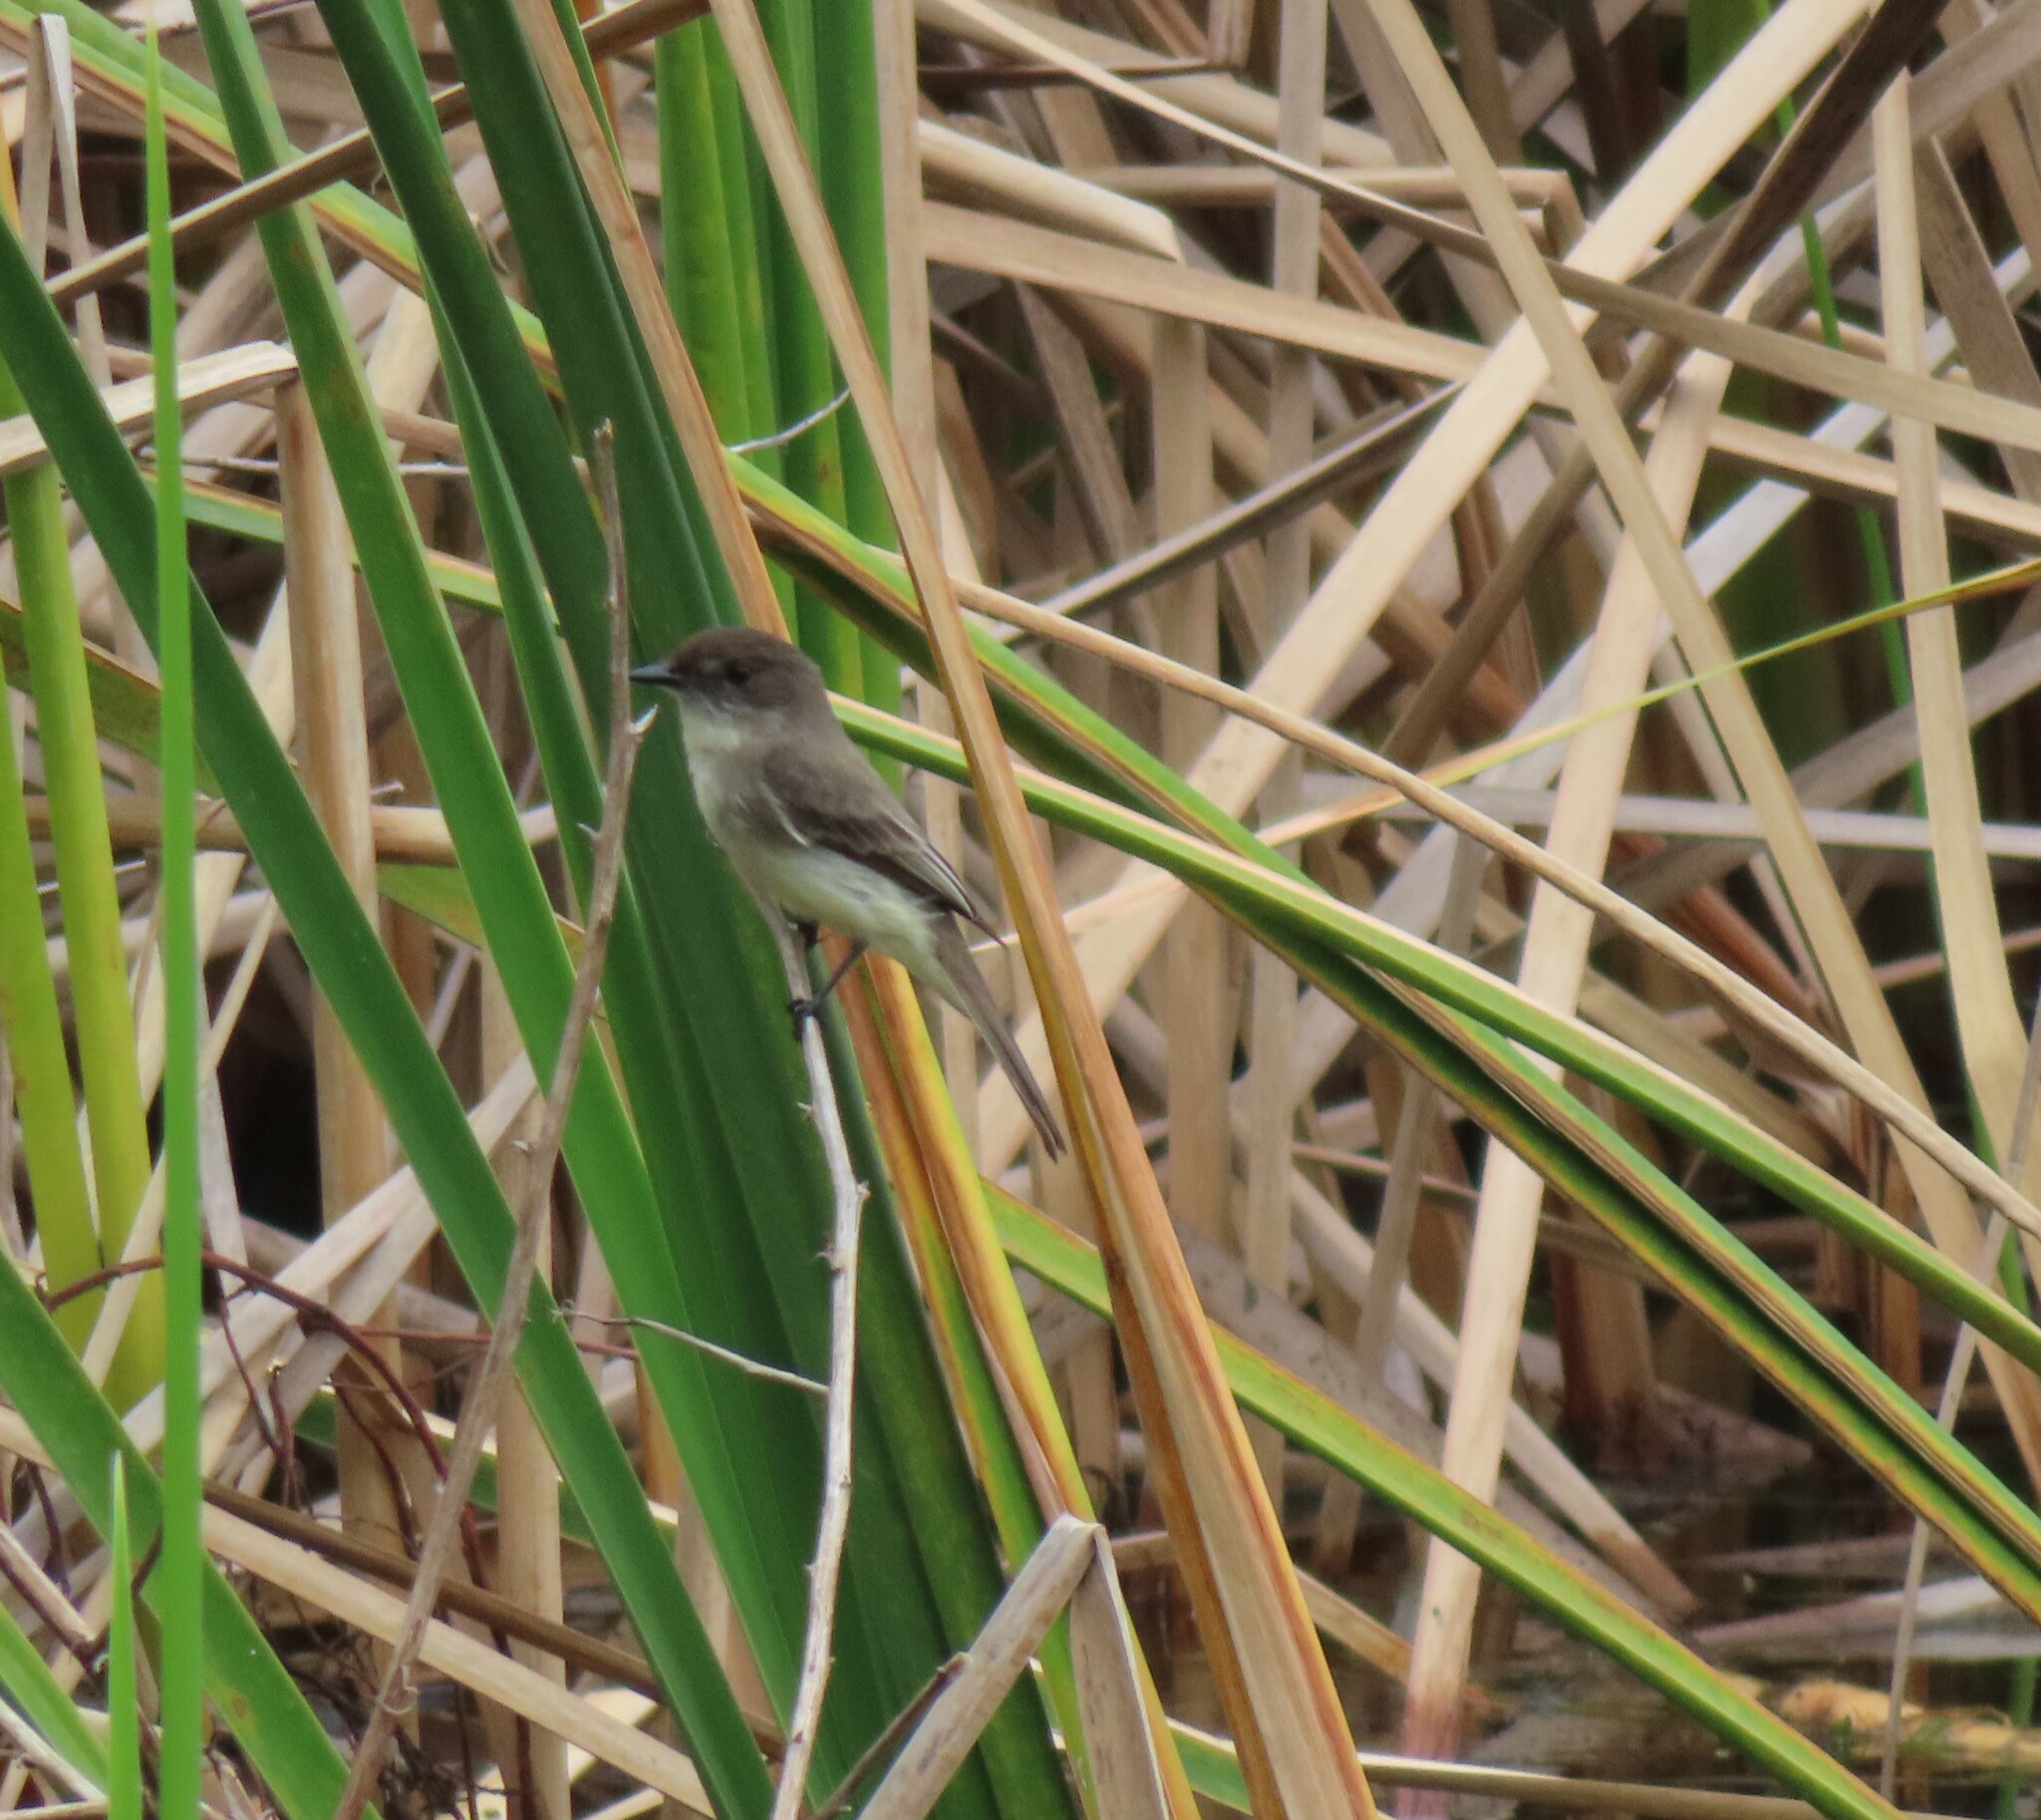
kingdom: Animalia
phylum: Chordata
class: Aves
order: Passeriformes
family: Tyrannidae
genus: Sayornis
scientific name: Sayornis phoebe
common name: Eastern phoebe
